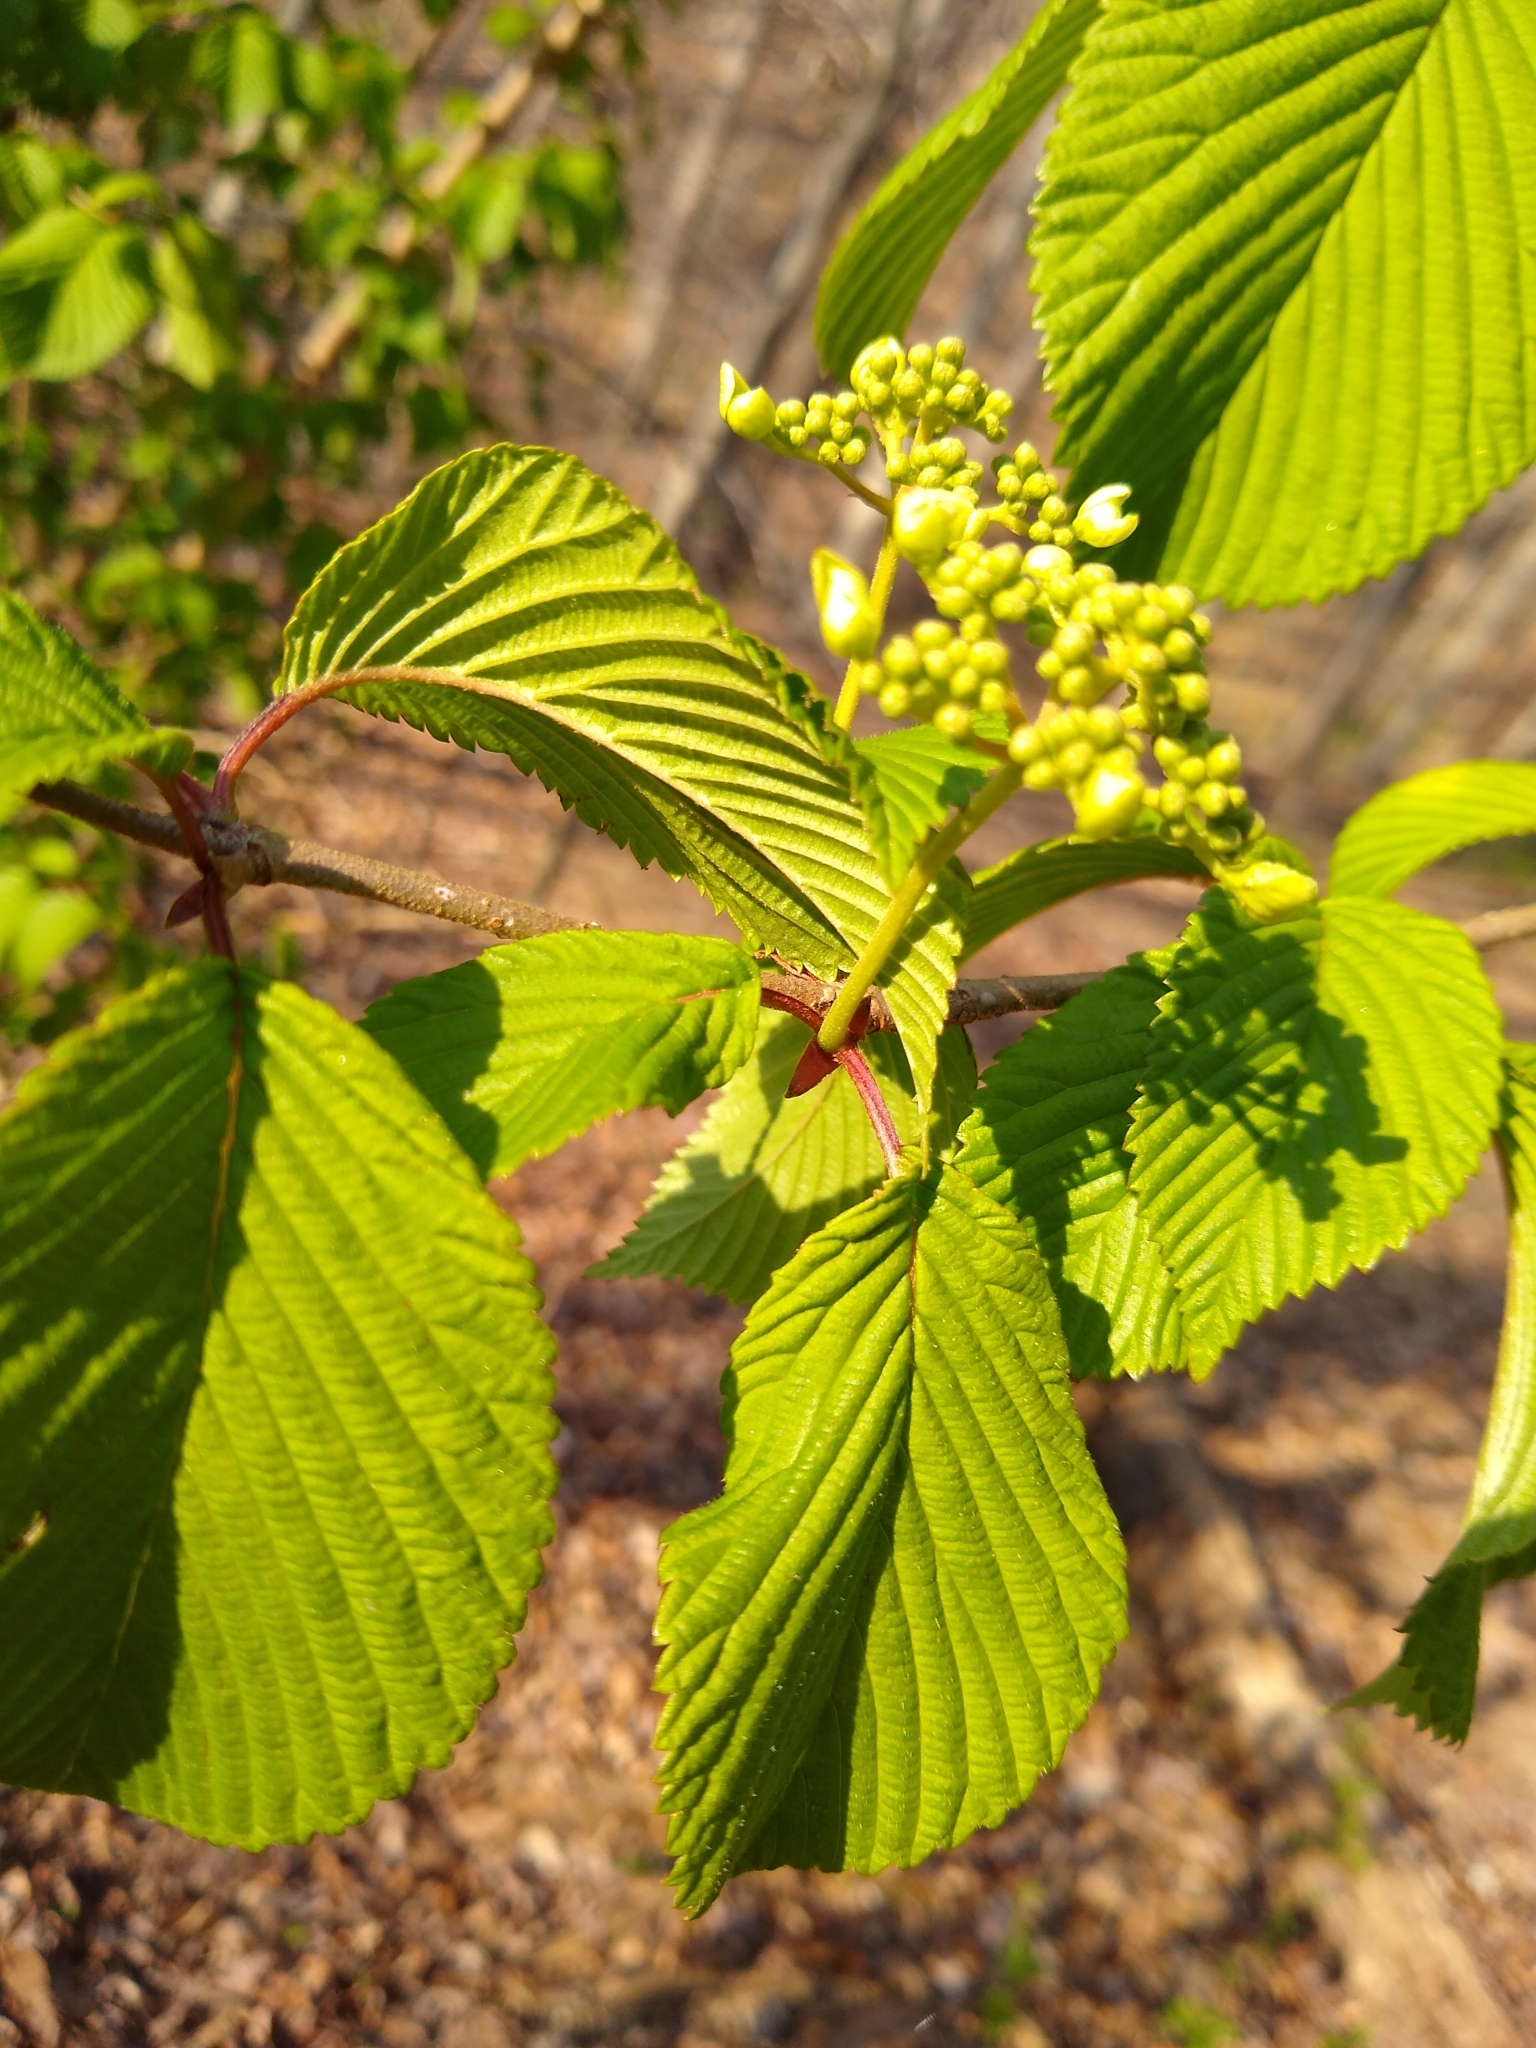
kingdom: Plantae
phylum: Tracheophyta
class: Magnoliopsida
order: Dipsacales
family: Viburnaceae
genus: Viburnum
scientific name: Viburnum plicatum
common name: Japanese snowball
